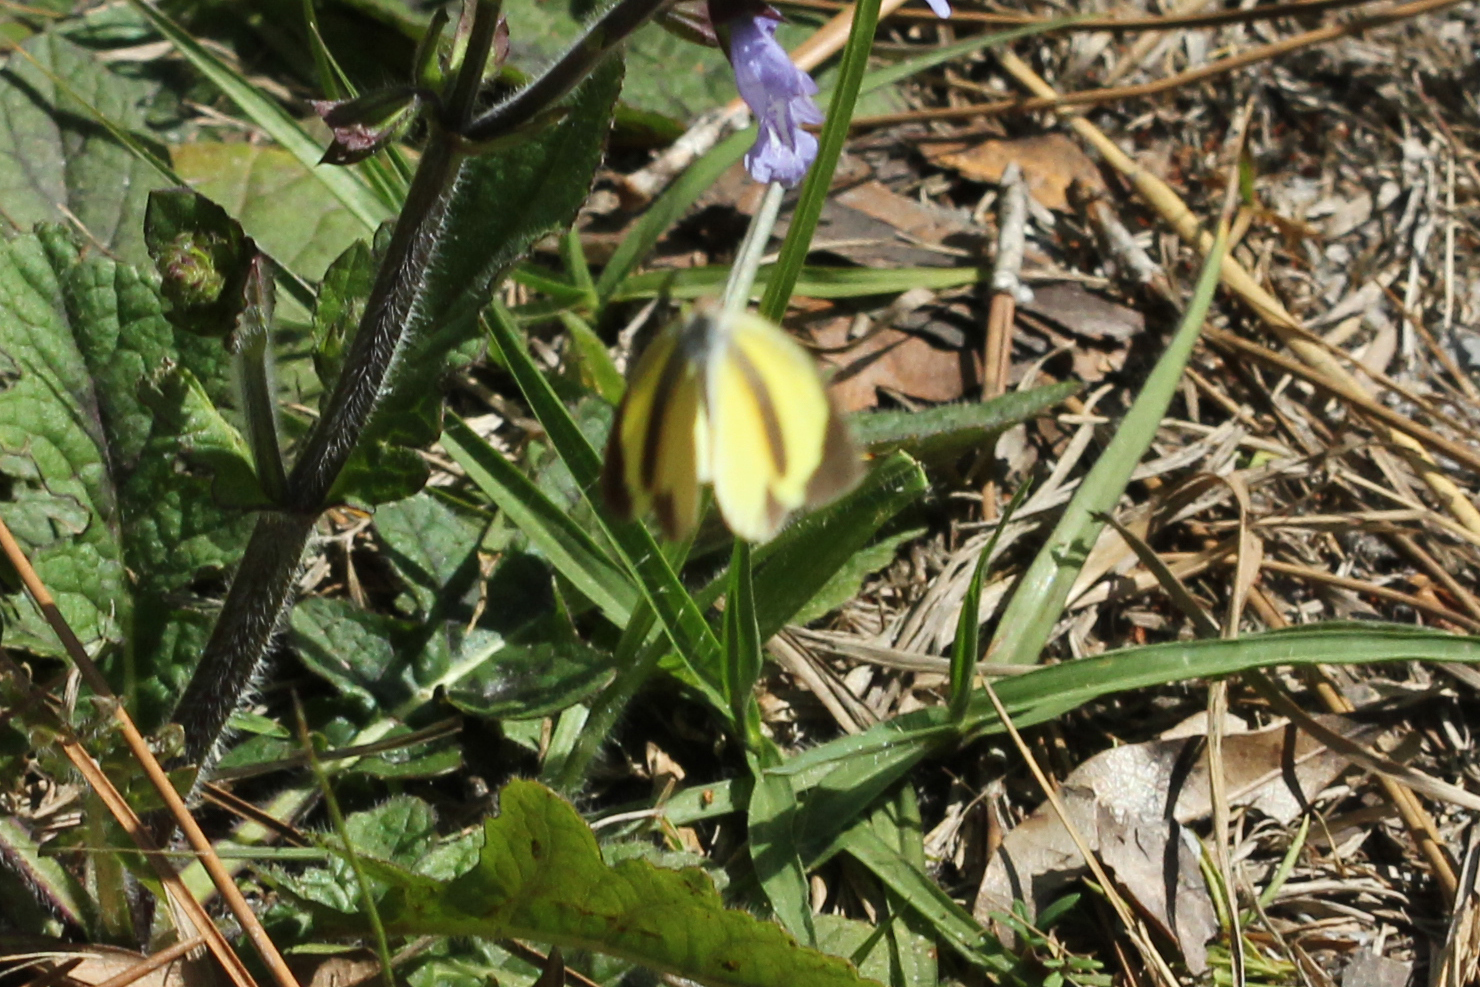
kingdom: Animalia
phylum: Arthropoda
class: Insecta
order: Lepidoptera
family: Pieridae
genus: Eurema
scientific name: Eurema daira
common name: Barred sulphur
